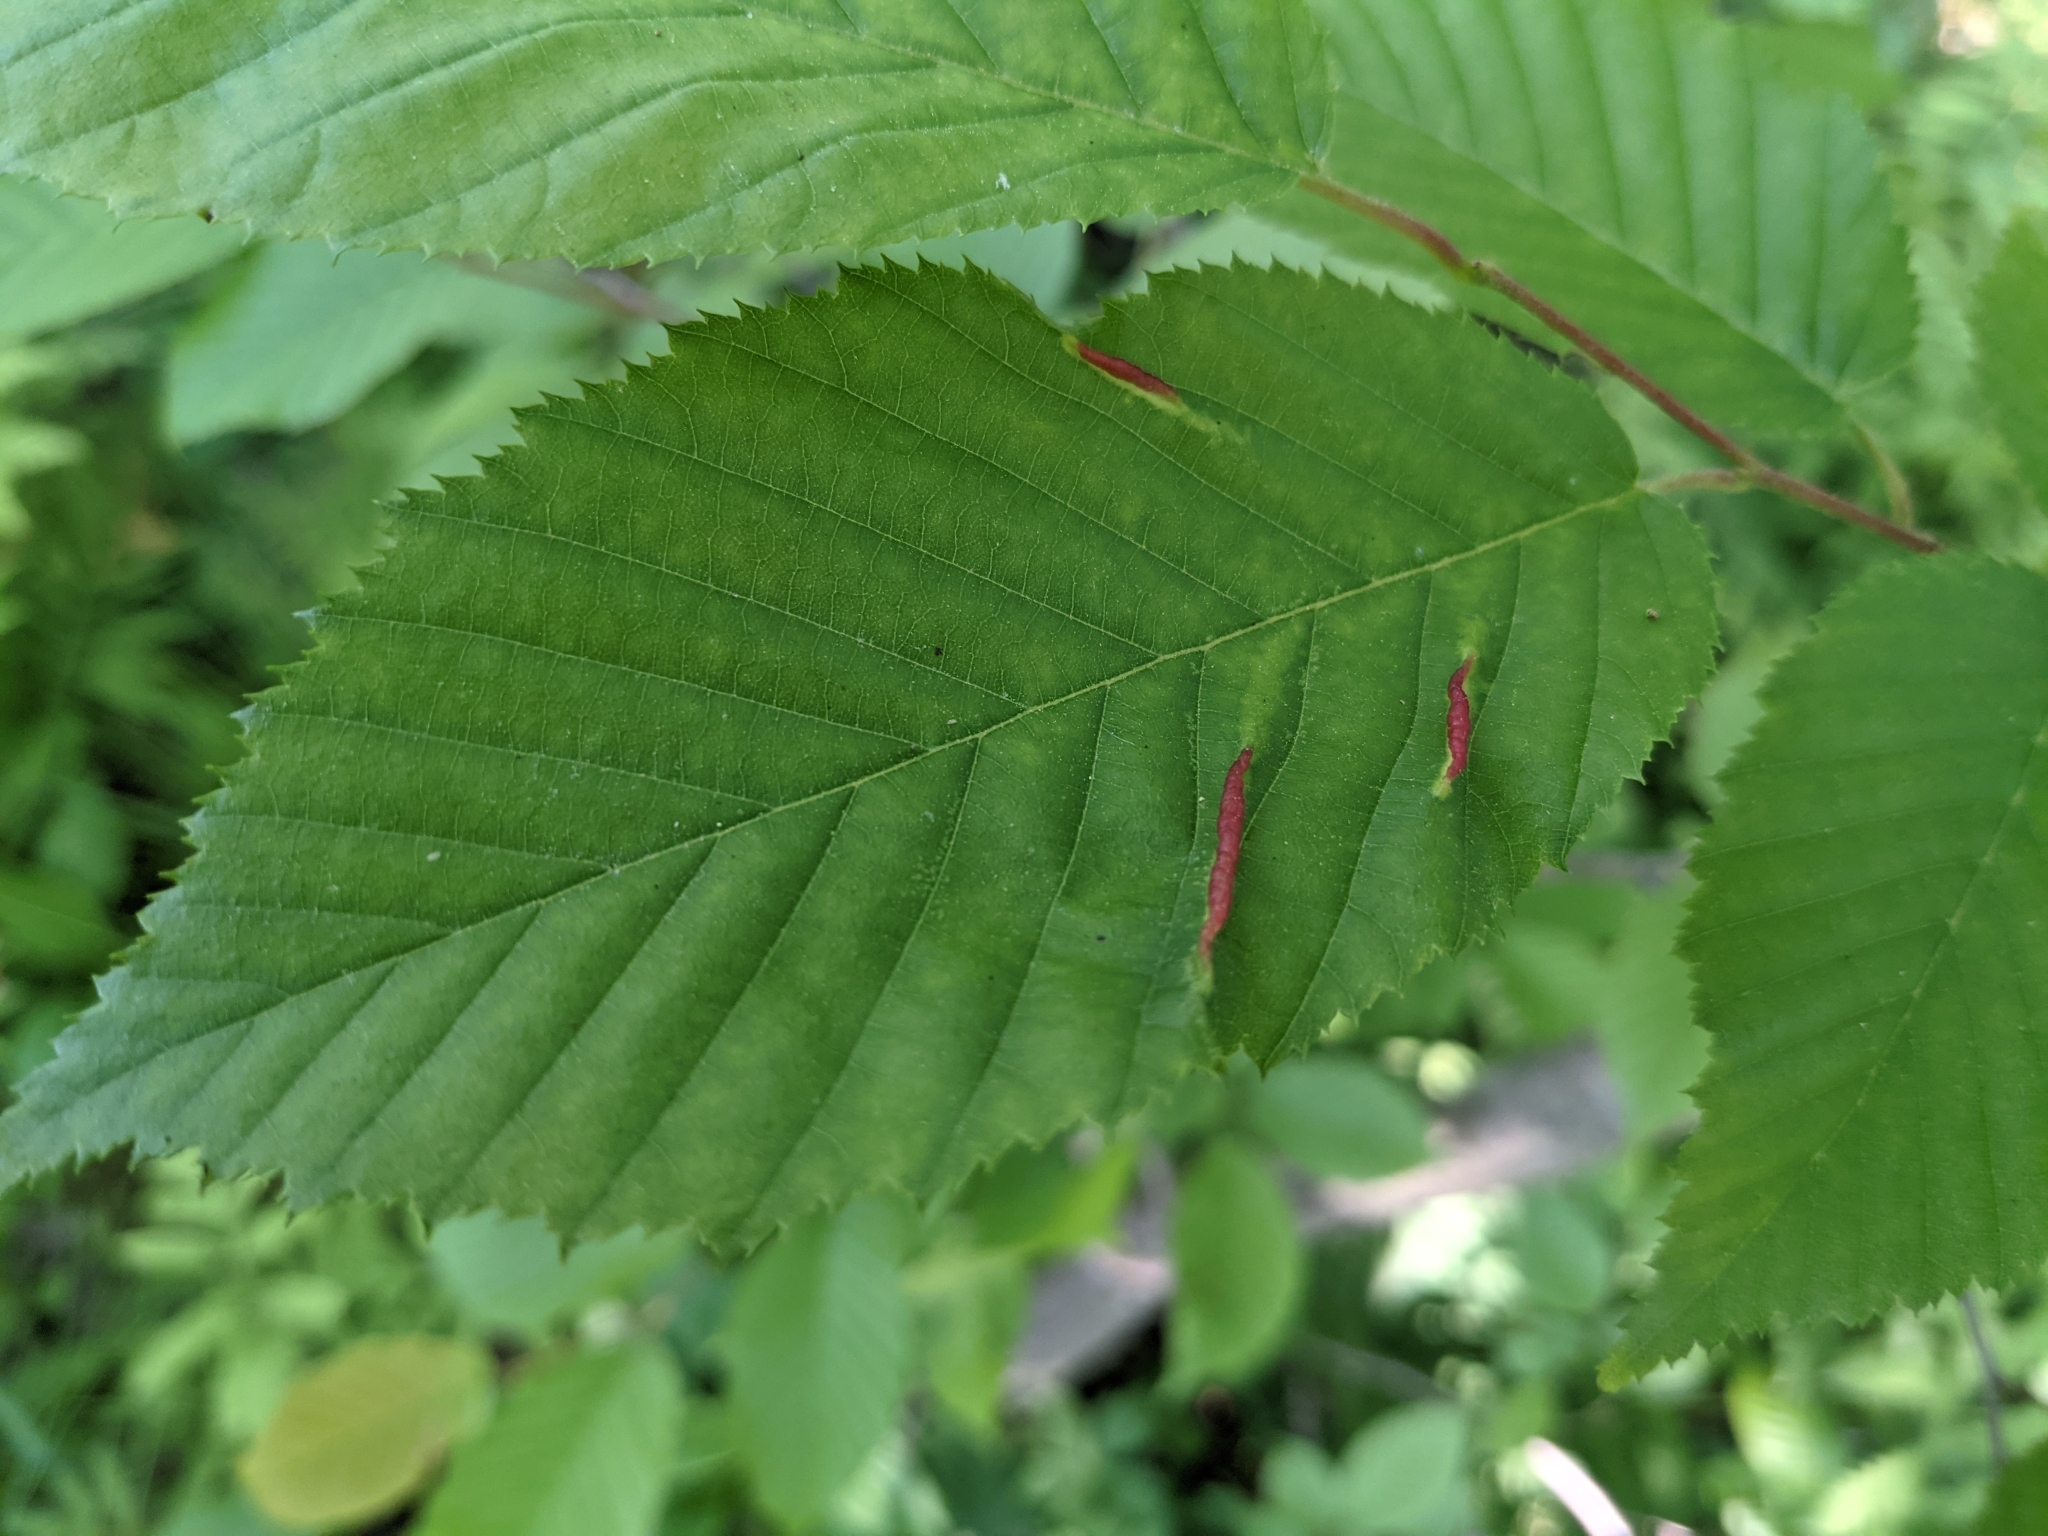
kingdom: Animalia
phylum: Arthropoda
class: Insecta
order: Diptera
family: Cecidomyiidae
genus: Dasineura
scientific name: Dasineura pudibunda
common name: Hornbeam leaf gall midge
